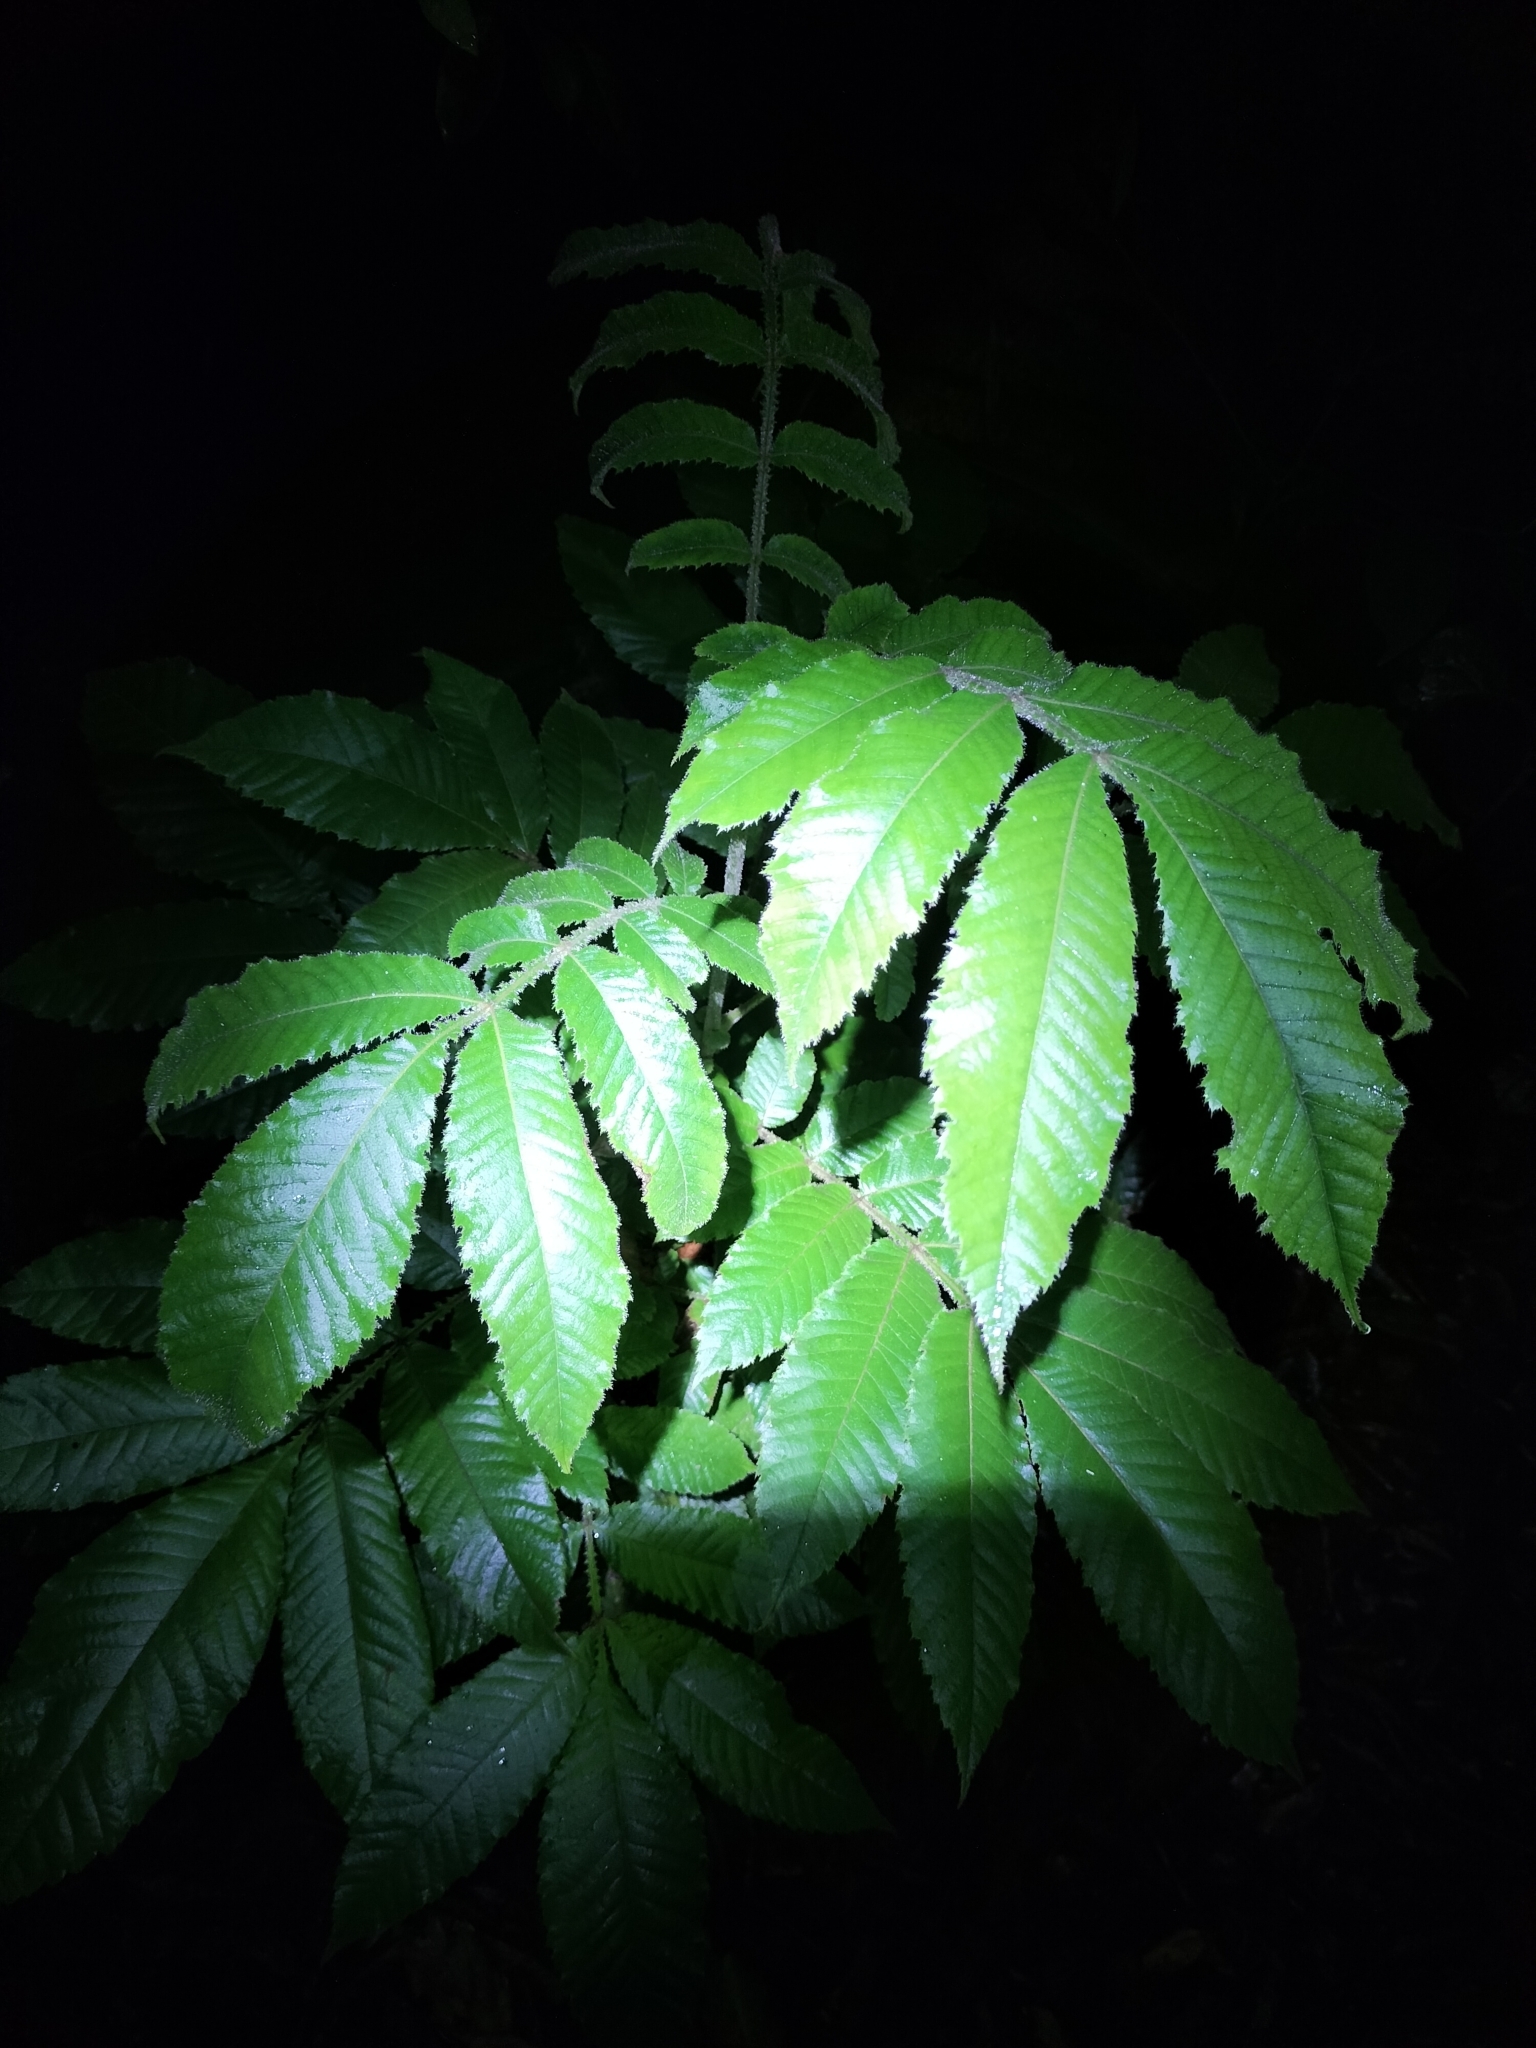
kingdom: Plantae
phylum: Tracheophyta
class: Magnoliopsida
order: Oxalidales
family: Cunoniaceae
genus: Davidsonia
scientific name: Davidsonia pruriens
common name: Do-rog
